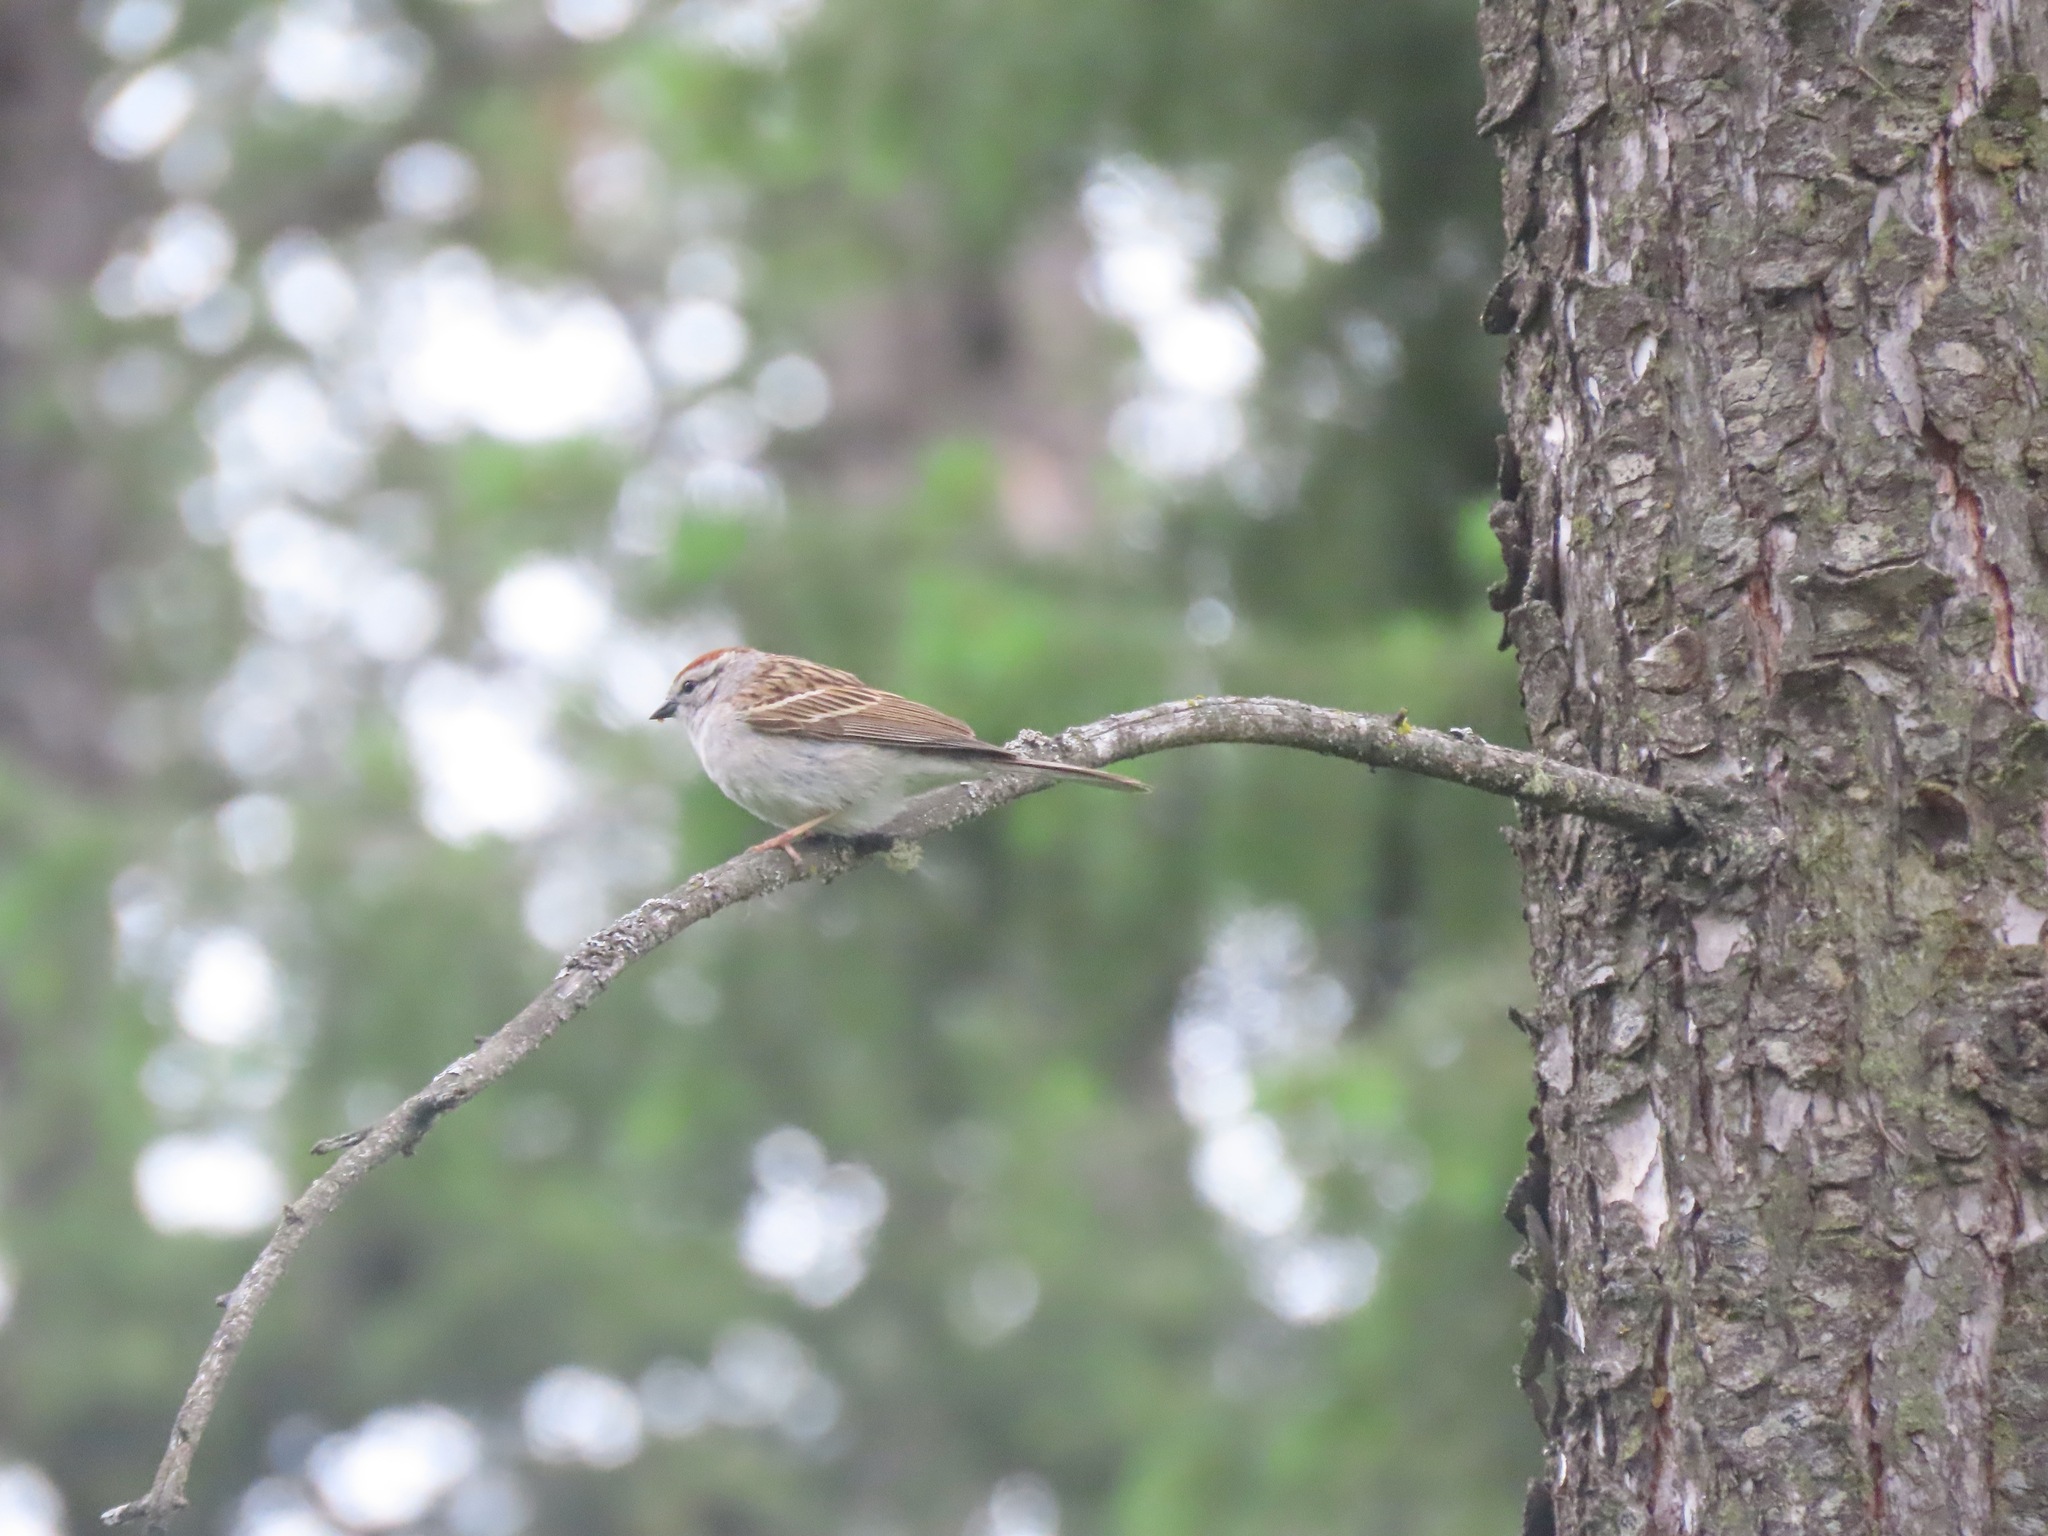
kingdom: Animalia
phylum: Chordata
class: Aves
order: Passeriformes
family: Passerellidae
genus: Spizella
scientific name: Spizella passerina
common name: Chipping sparrow
